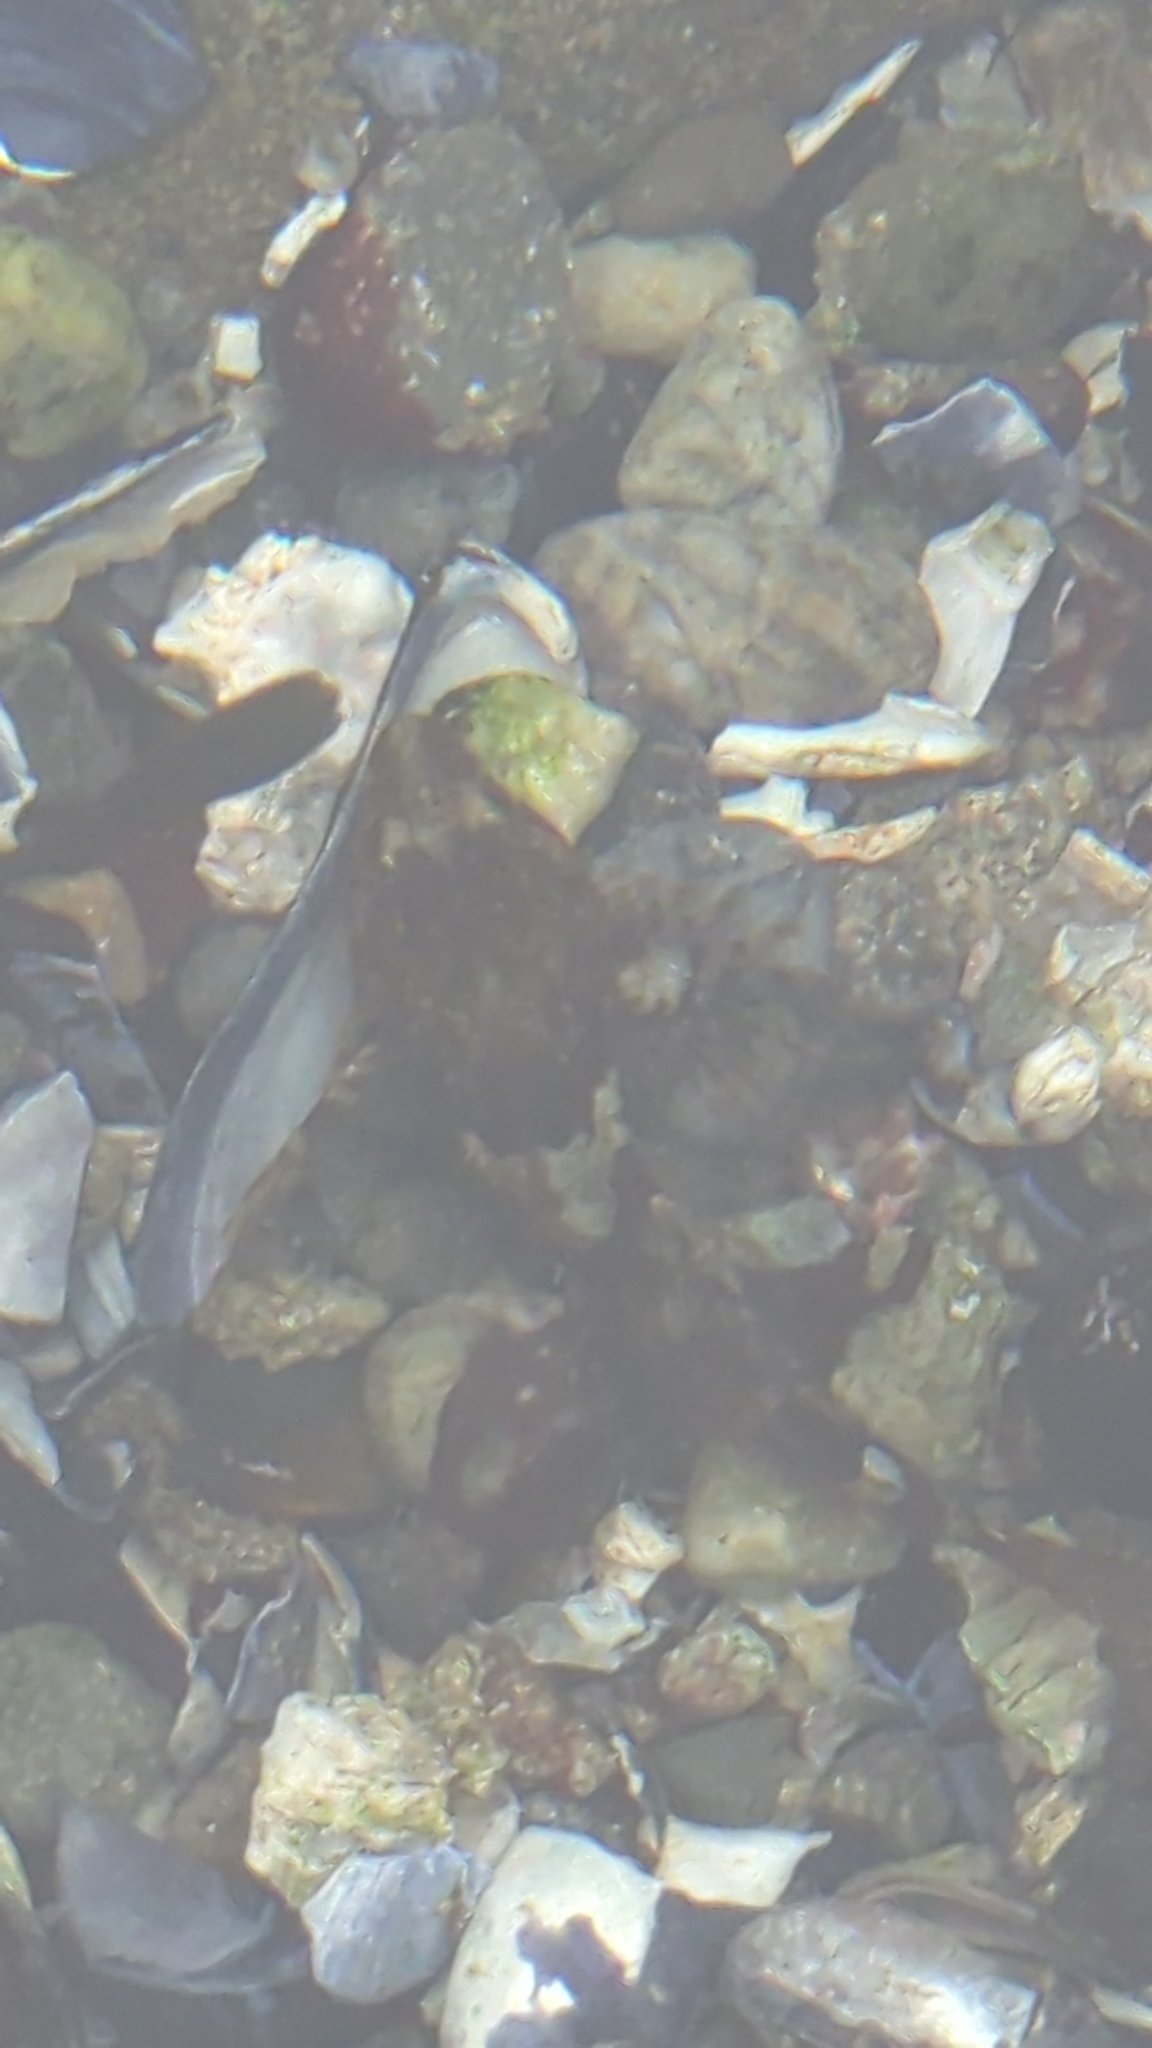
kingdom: Animalia
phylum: Chordata
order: Scorpaeniformes
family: Cottidae
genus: Oligocottus
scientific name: Oligocottus maculosus
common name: Tidepool sculpin
